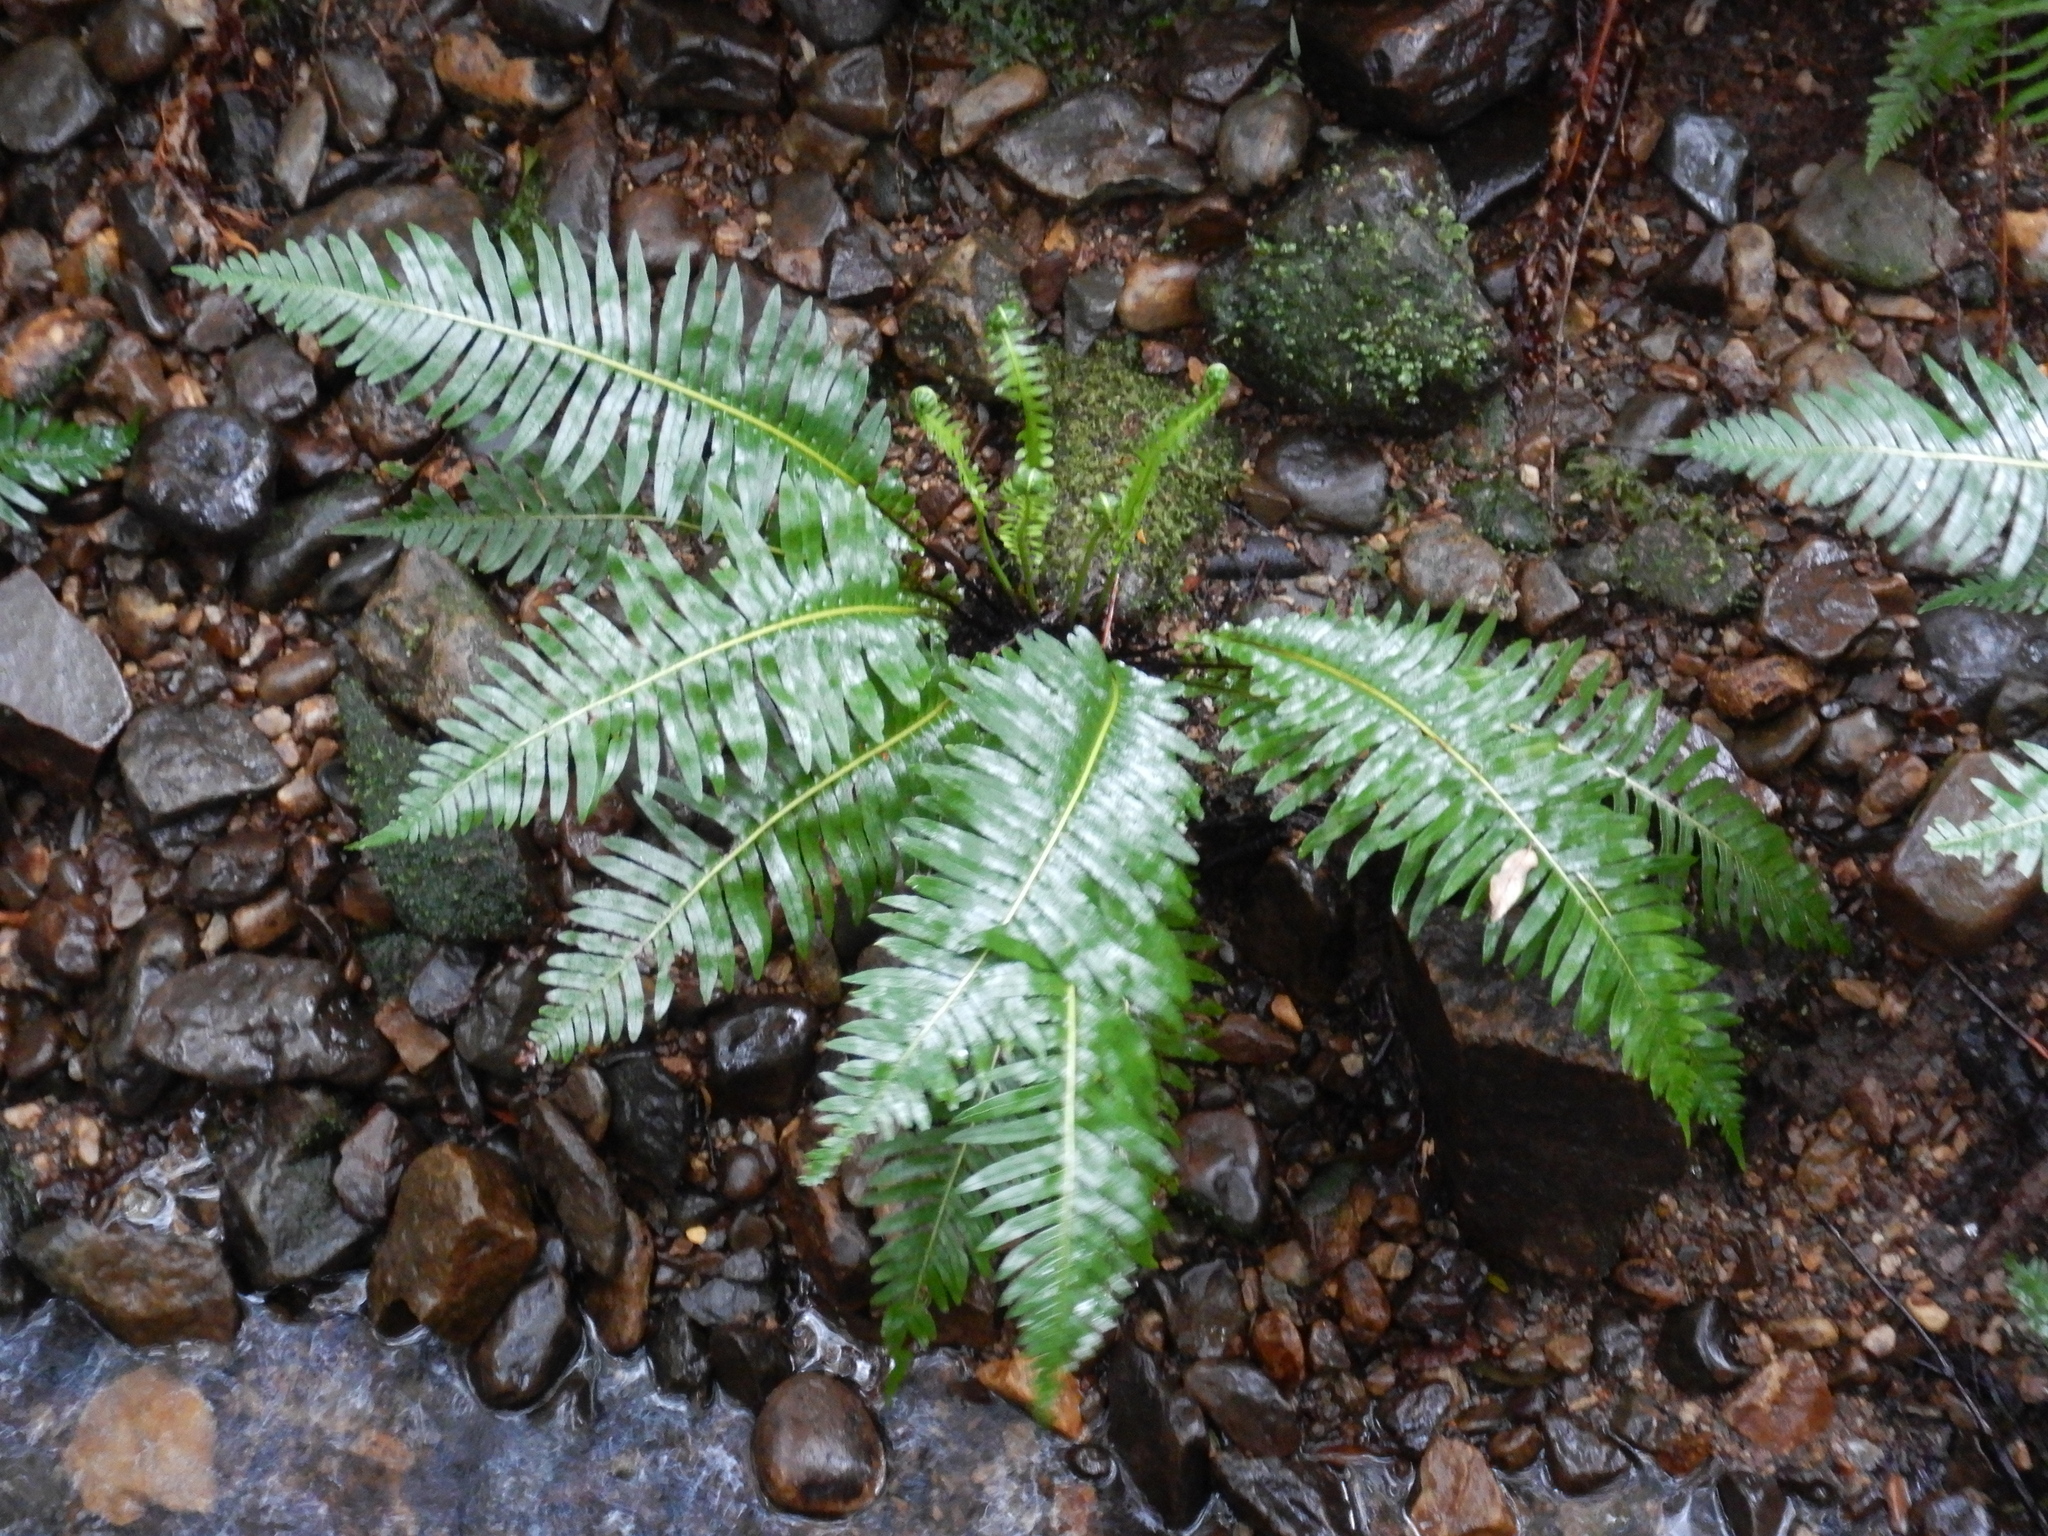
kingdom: Plantae
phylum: Tracheophyta
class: Polypodiopsida
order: Polypodiales
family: Blechnaceae
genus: Lomaria
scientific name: Lomaria nuda
